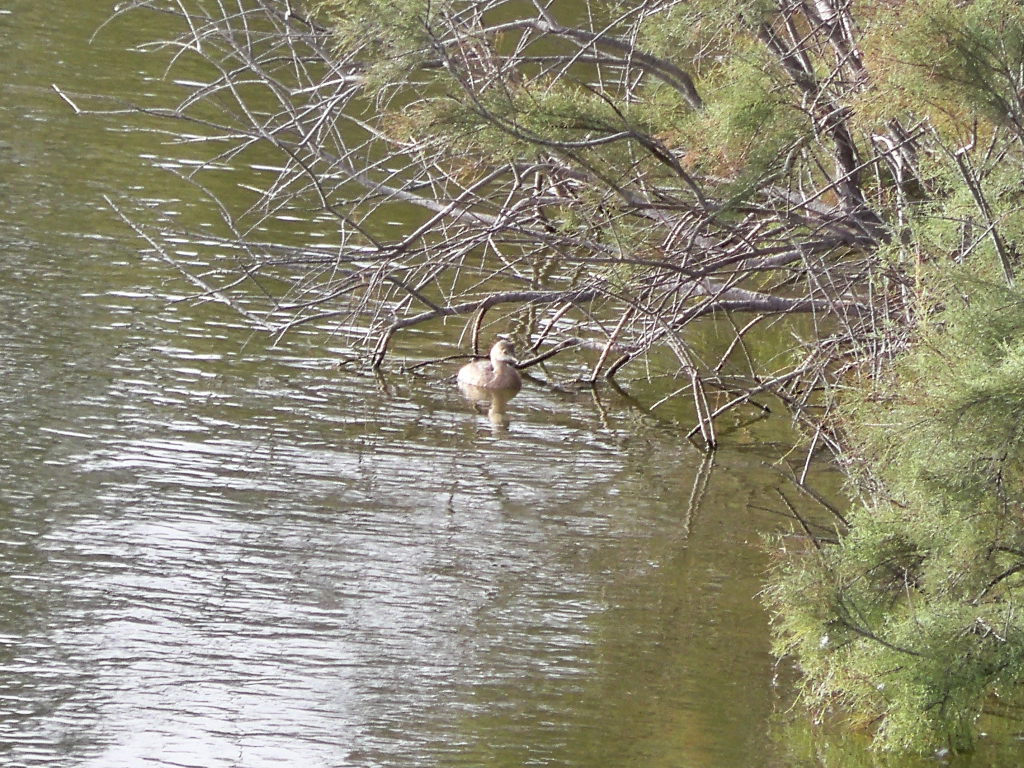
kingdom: Animalia
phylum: Chordata
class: Aves
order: Podicipediformes
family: Podicipedidae
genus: Tachybaptus
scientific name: Tachybaptus ruficollis
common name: Little grebe
